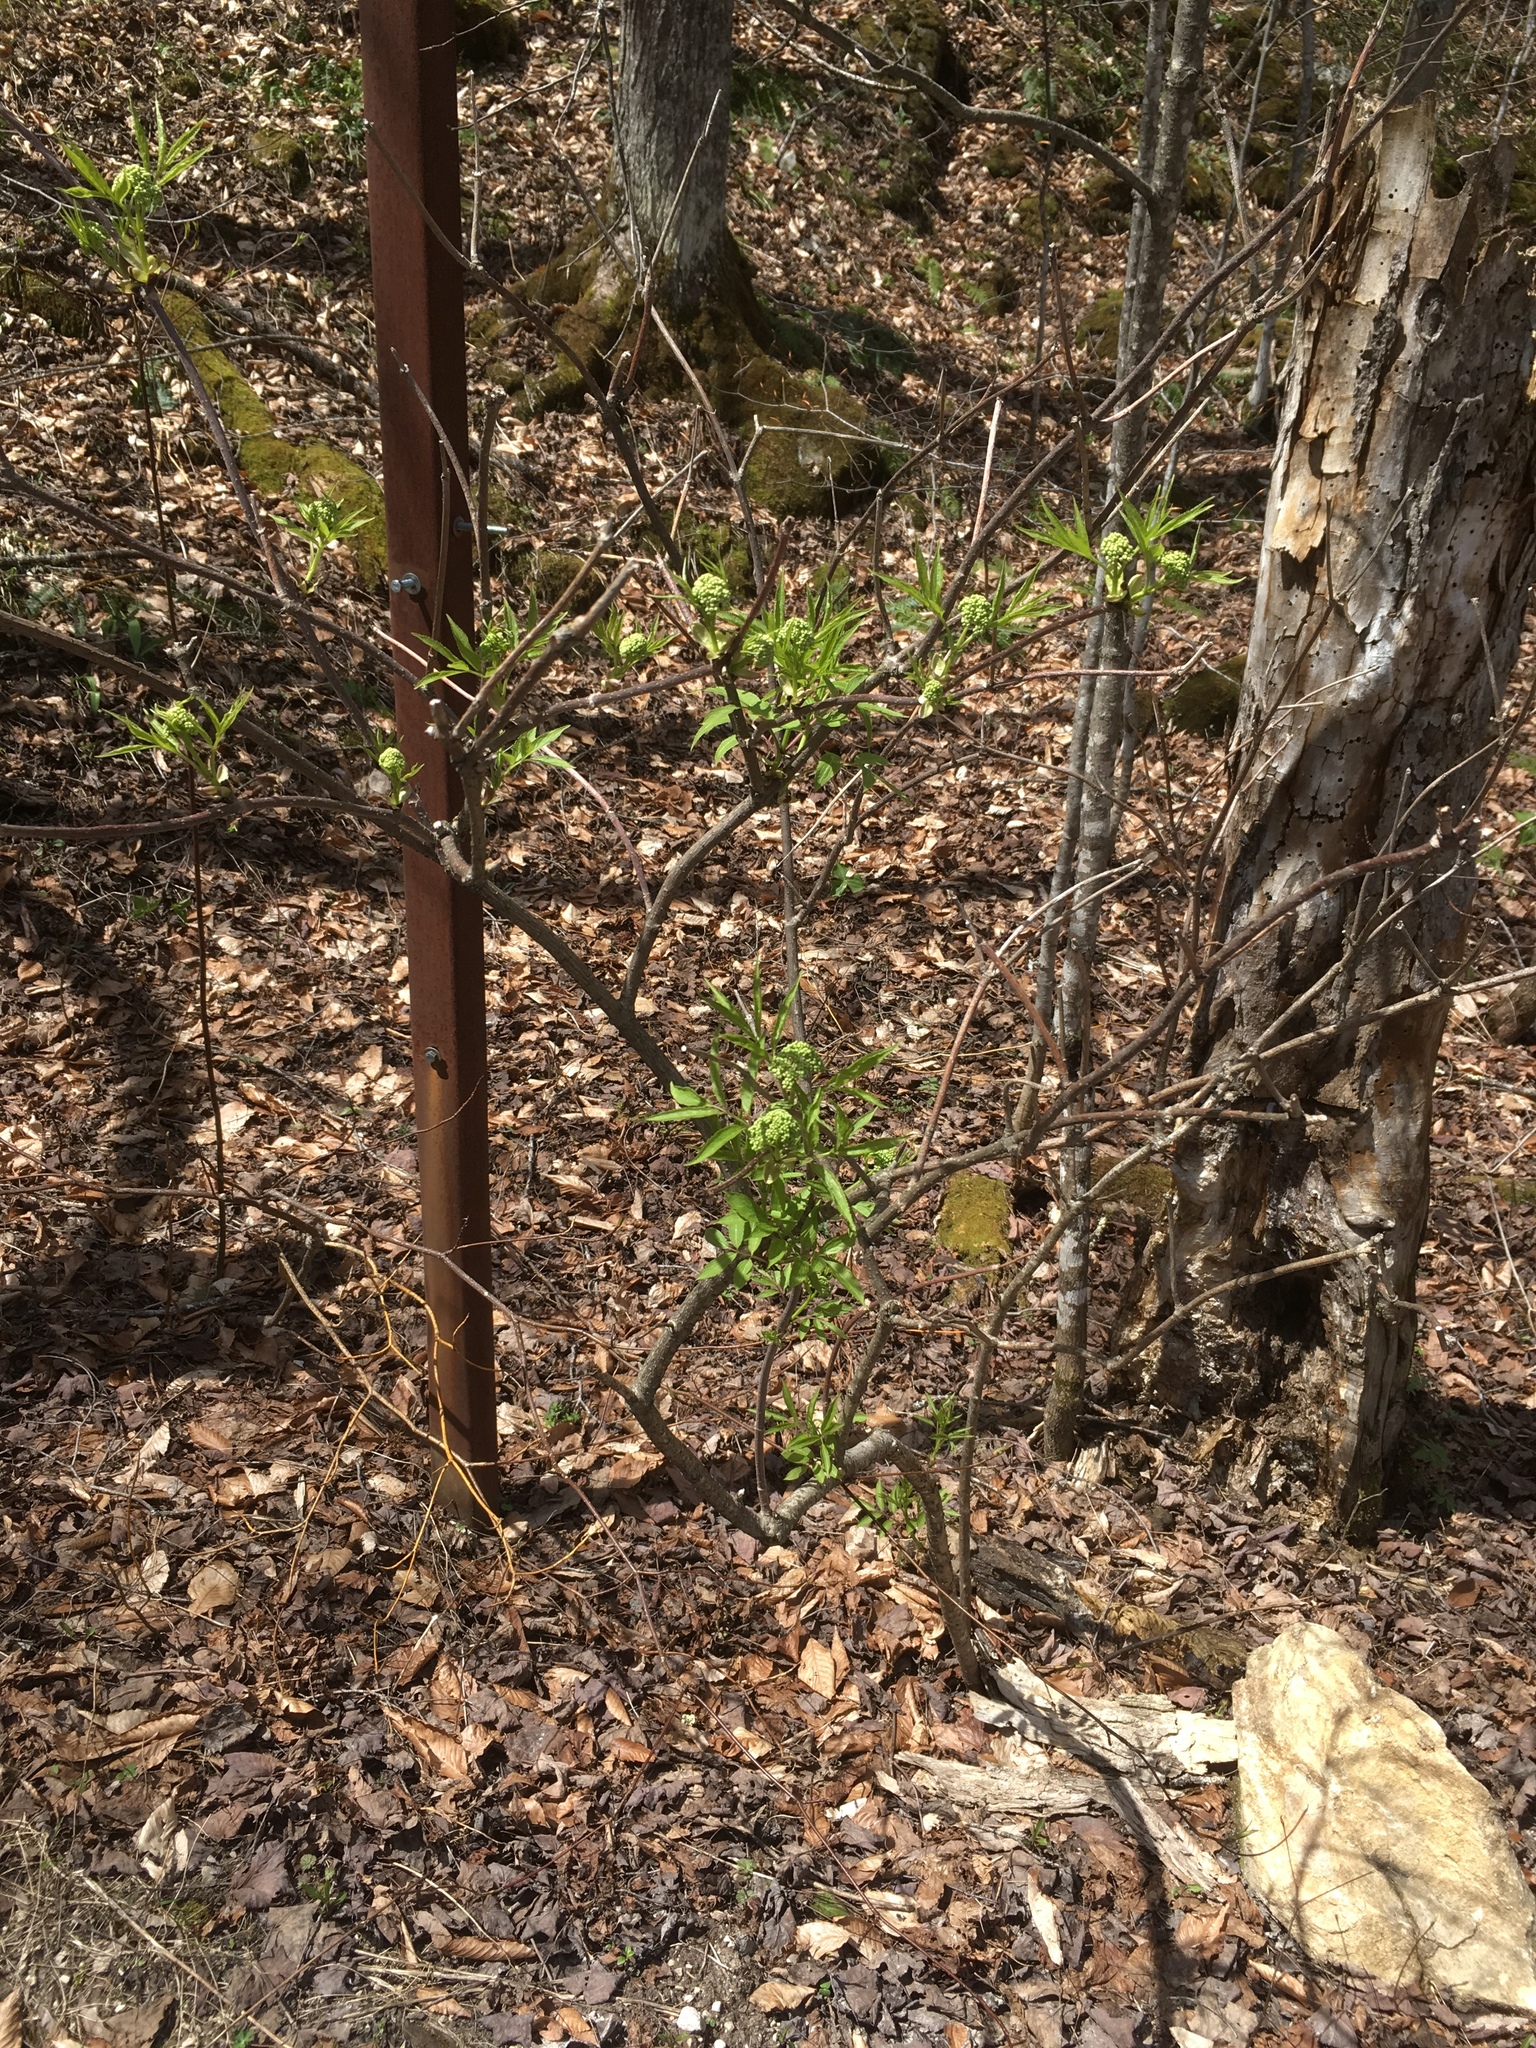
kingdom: Plantae
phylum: Tracheophyta
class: Magnoliopsida
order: Dipsacales
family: Viburnaceae
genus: Sambucus
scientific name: Sambucus racemosa
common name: Red-berried elder
